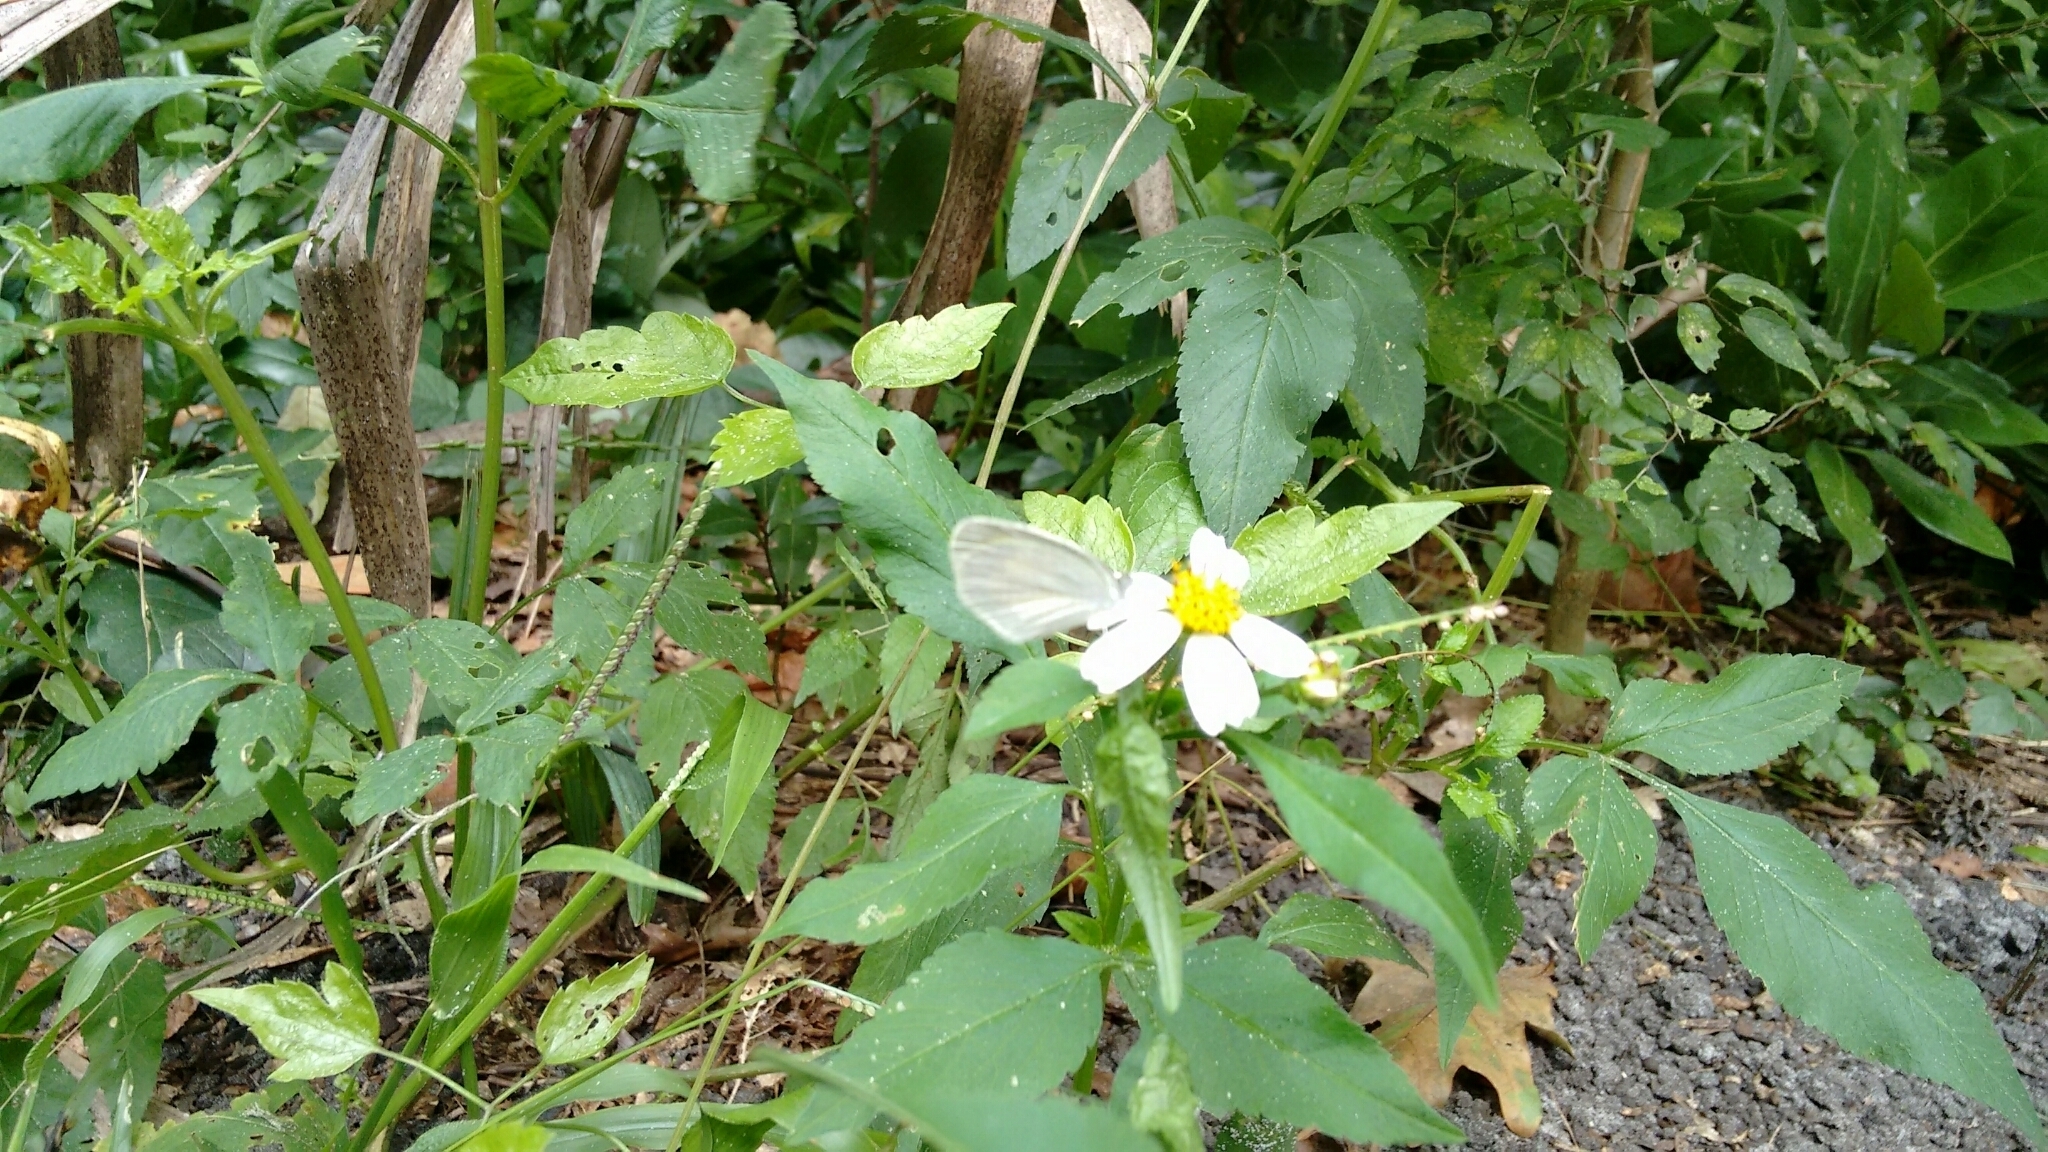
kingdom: Animalia
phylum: Arthropoda
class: Insecta
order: Lepidoptera
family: Pieridae
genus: Eurema
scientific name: Eurema daira
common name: Barred sulphur
